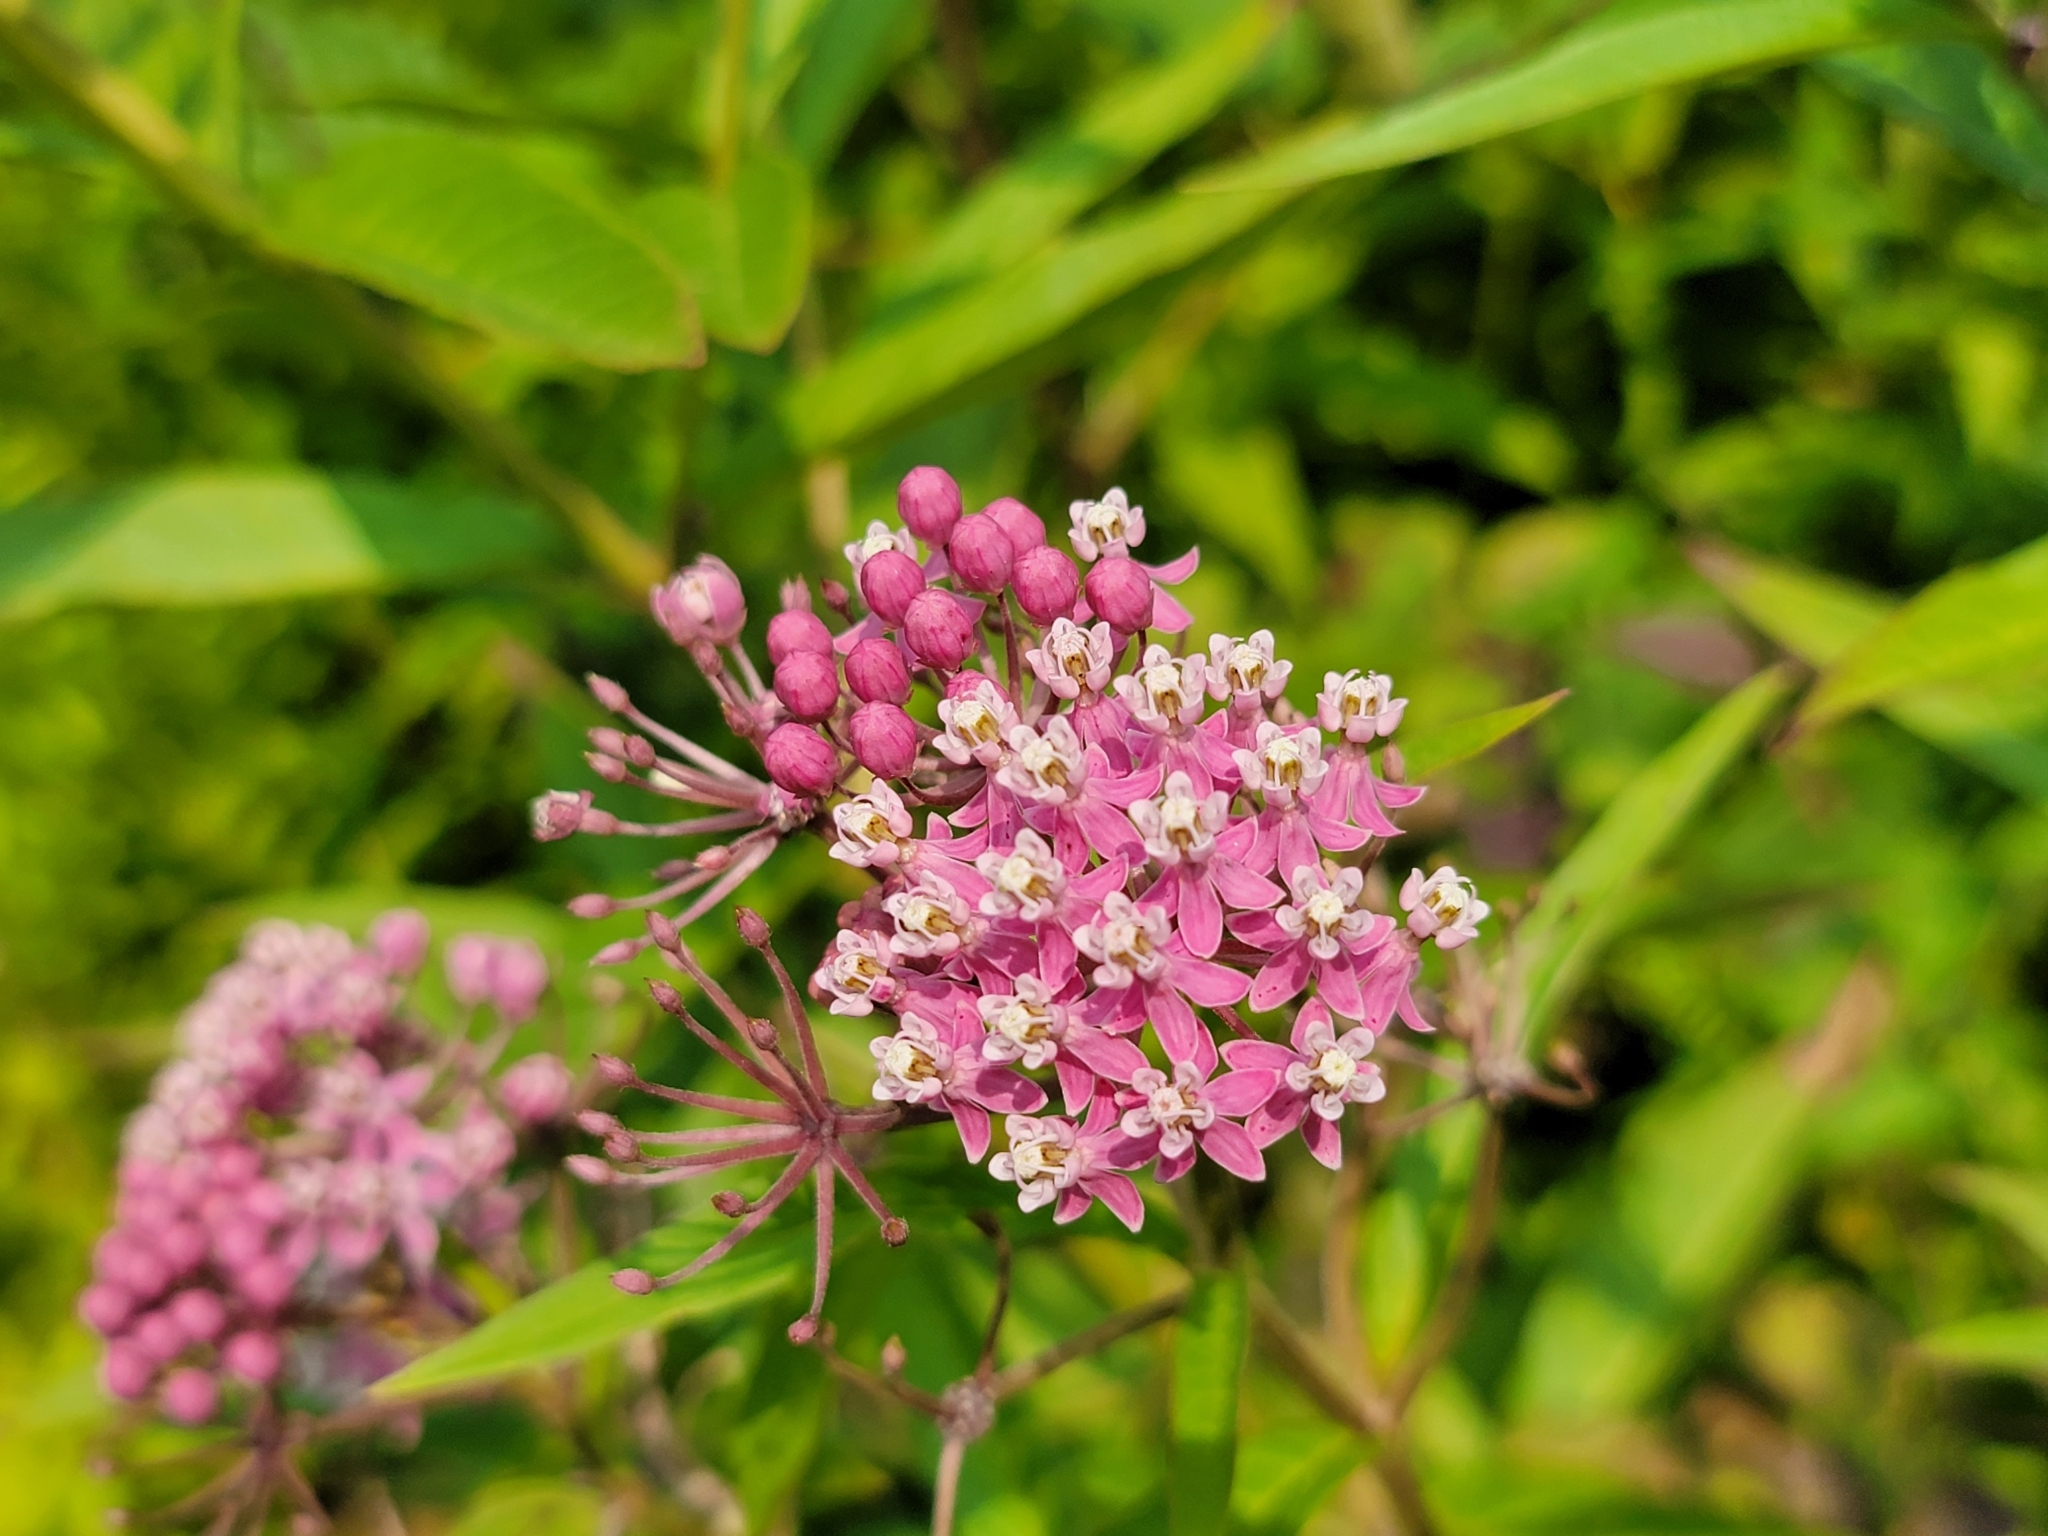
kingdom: Plantae
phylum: Tracheophyta
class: Magnoliopsida
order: Gentianales
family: Apocynaceae
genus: Asclepias
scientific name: Asclepias incarnata
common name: Swamp milkweed
